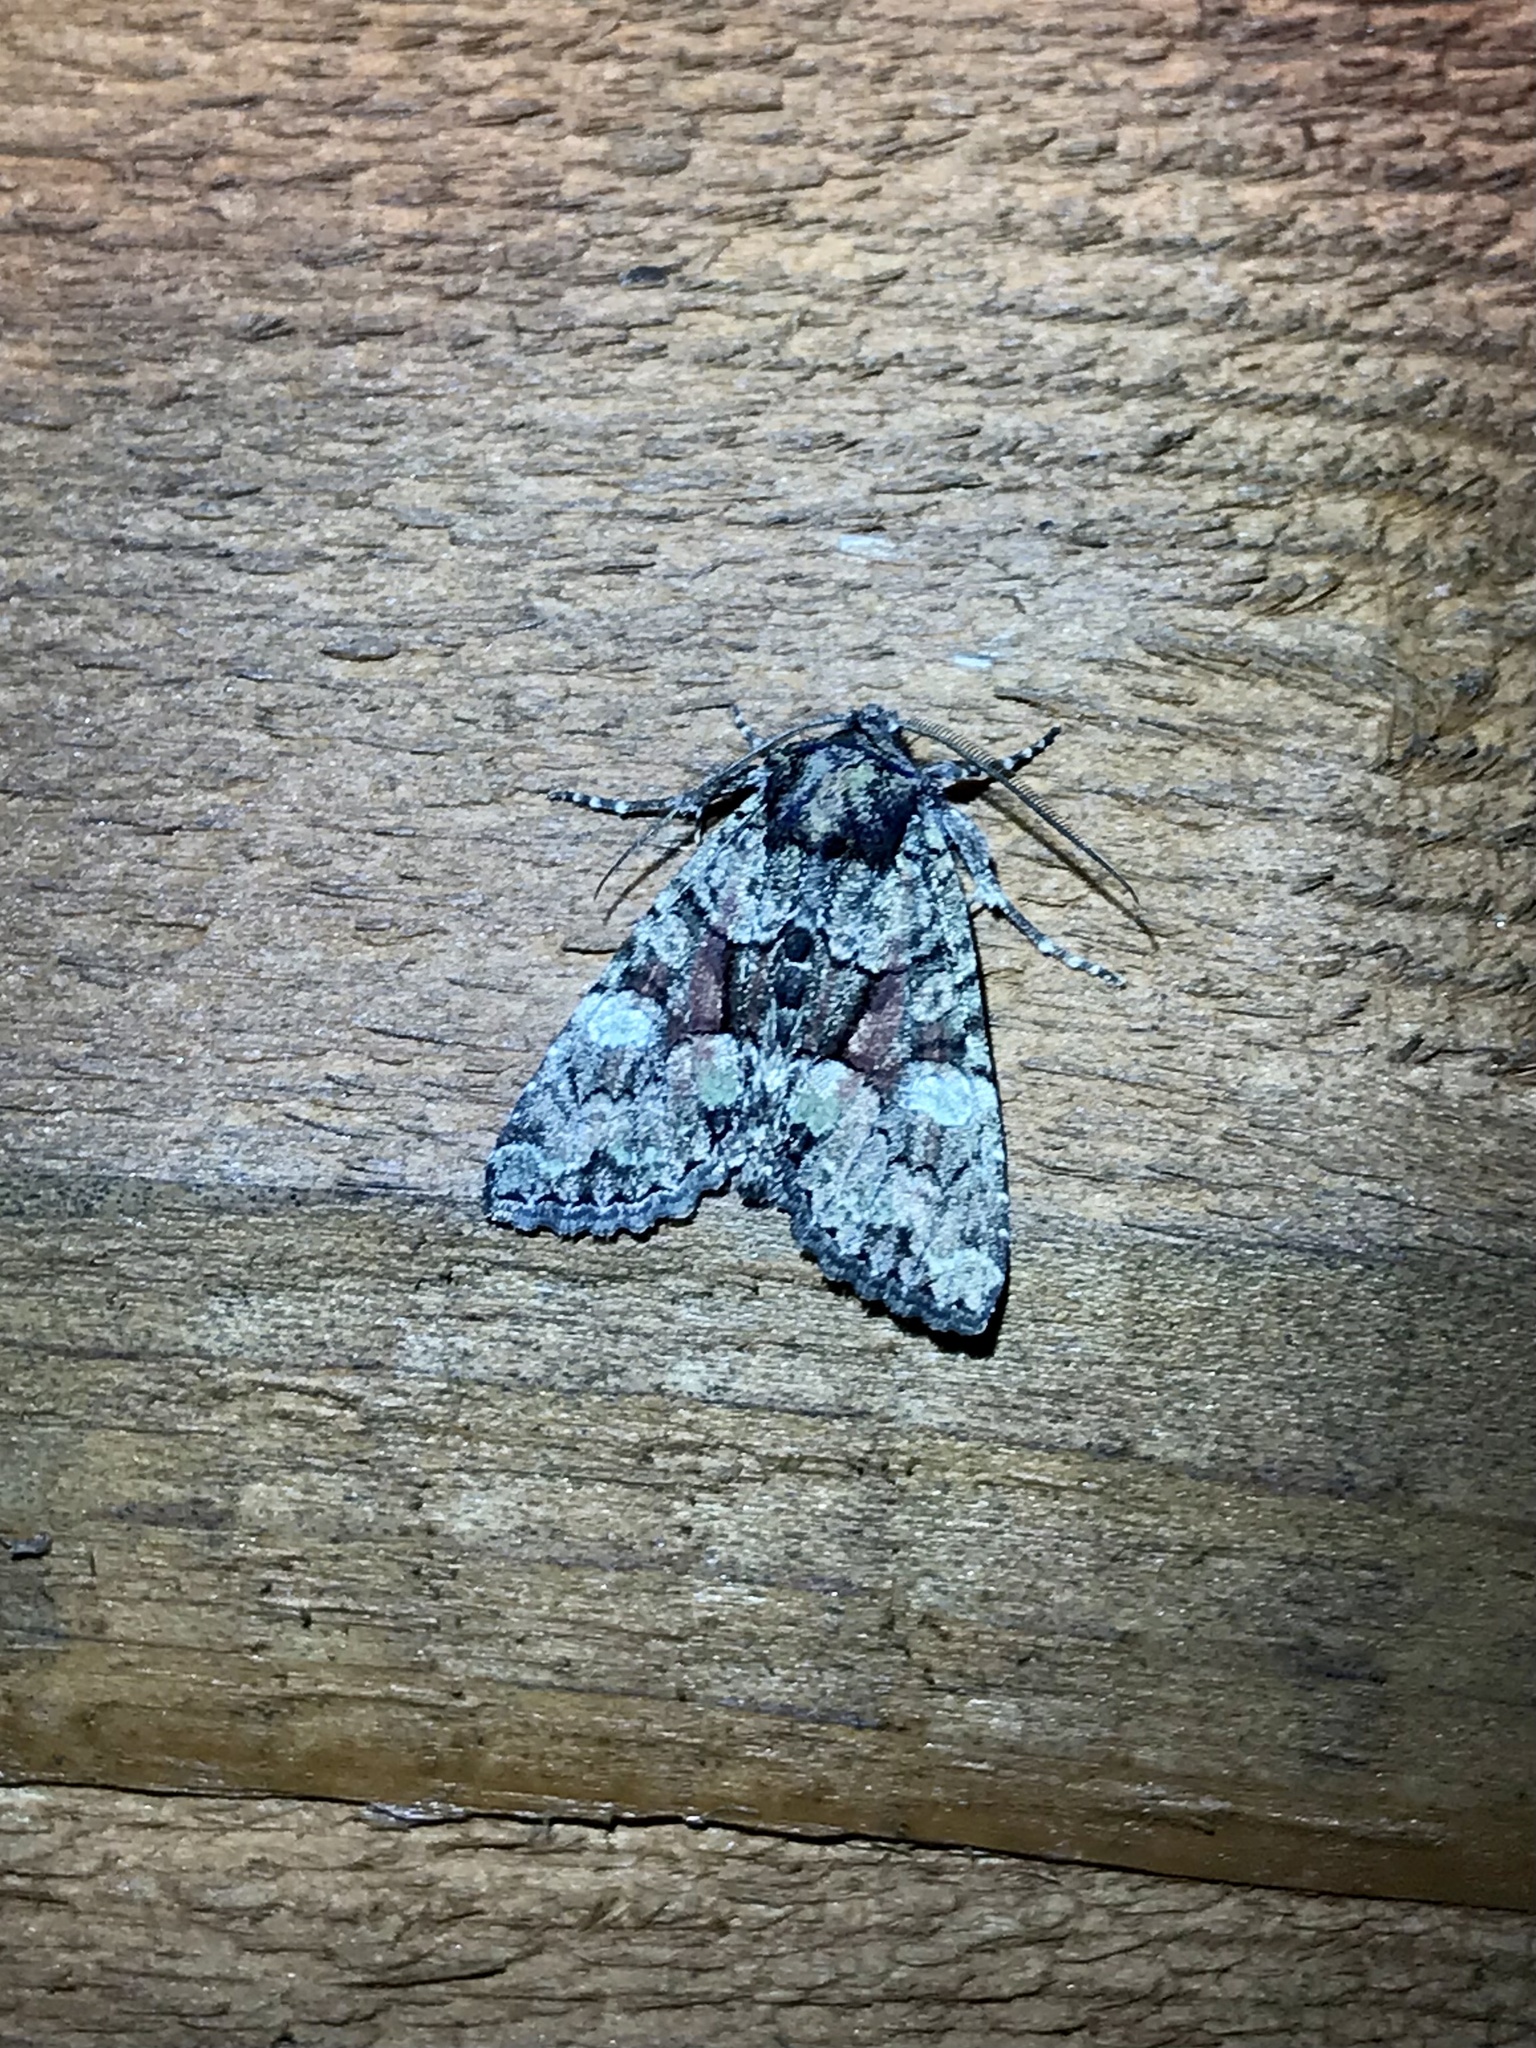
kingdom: Animalia
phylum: Arthropoda
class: Insecta
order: Lepidoptera
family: Noctuidae
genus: Fishia
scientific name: Fishia illocata
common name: Wandering brocade moth
